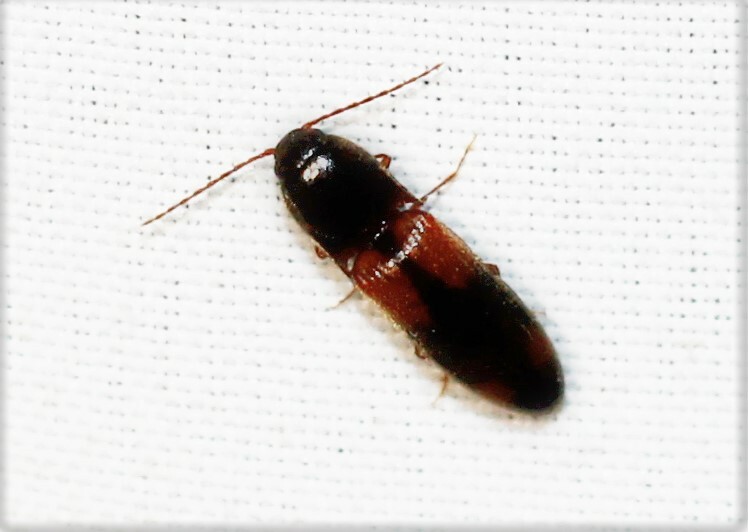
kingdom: Animalia
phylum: Arthropoda
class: Insecta
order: Coleoptera
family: Elateridae
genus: Anchastus
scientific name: Anchastus binus
